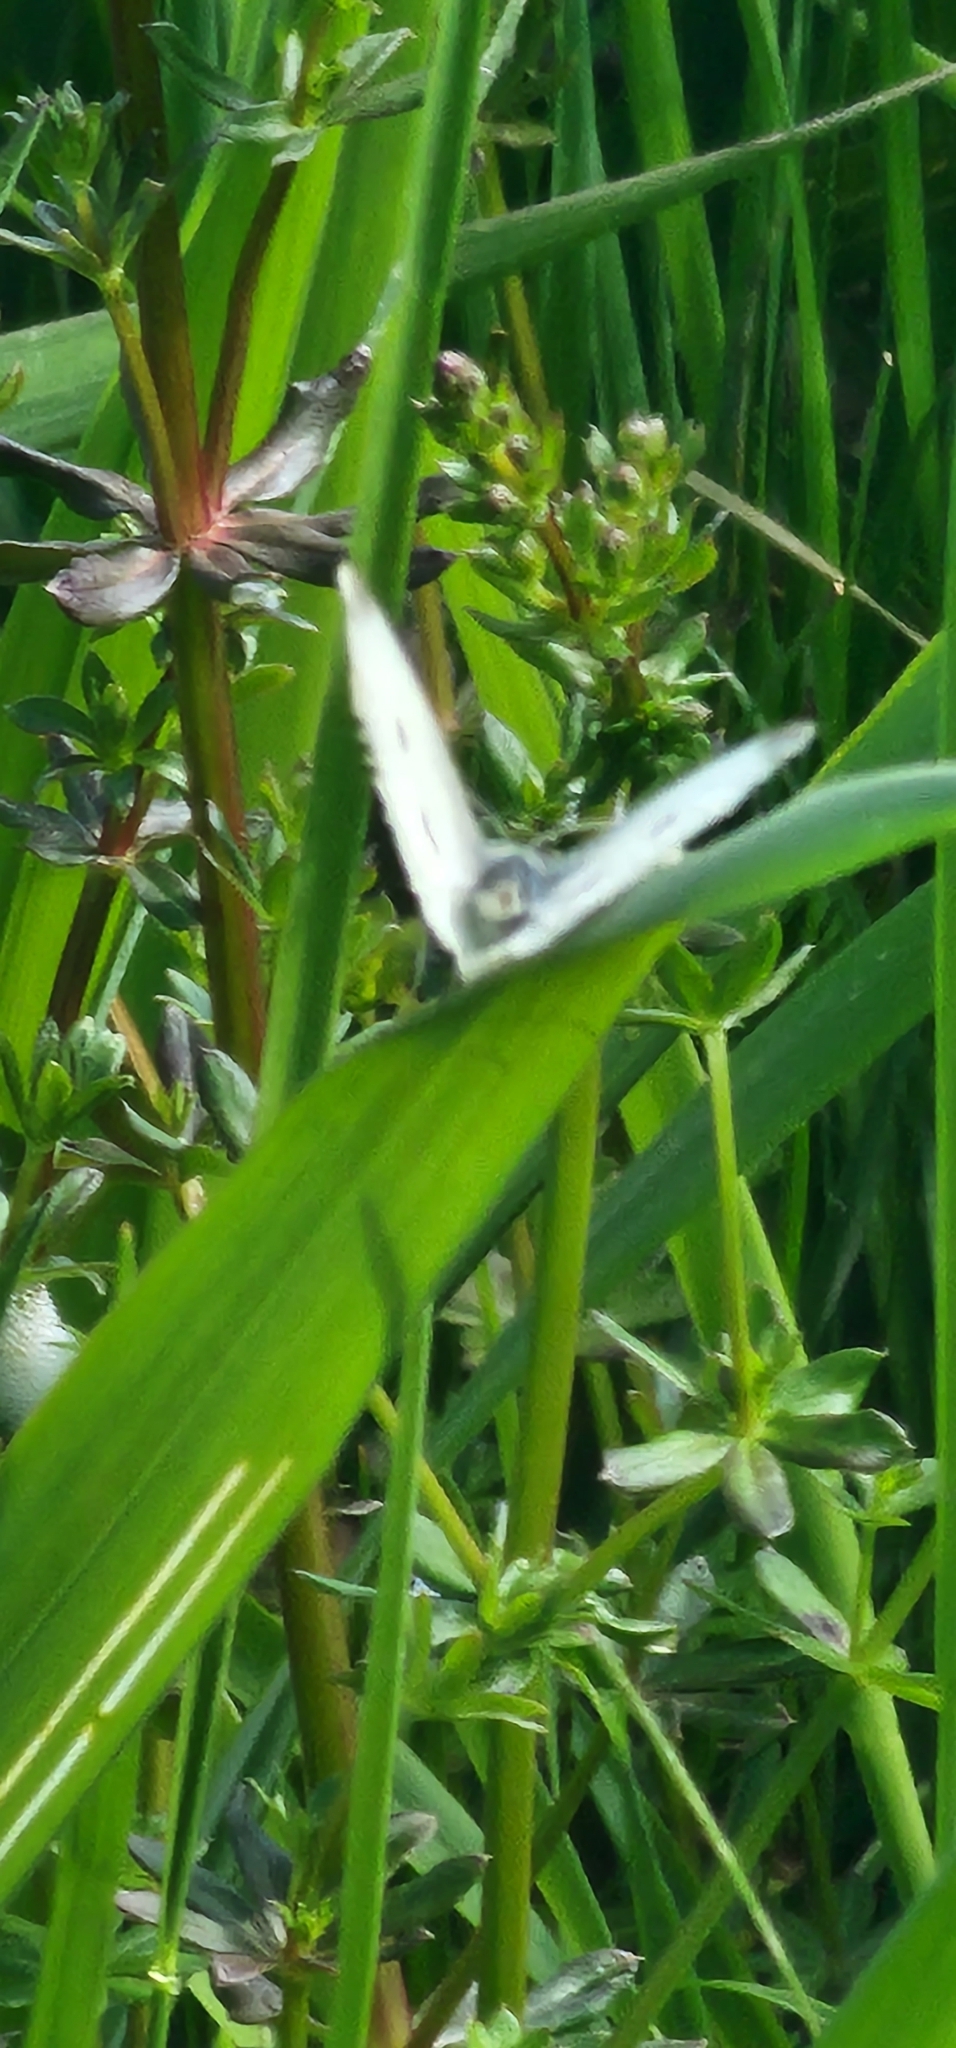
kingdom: Animalia
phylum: Arthropoda
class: Insecta
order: Lepidoptera
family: Pieridae
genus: Pieris
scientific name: Pieris rapae
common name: Small white
